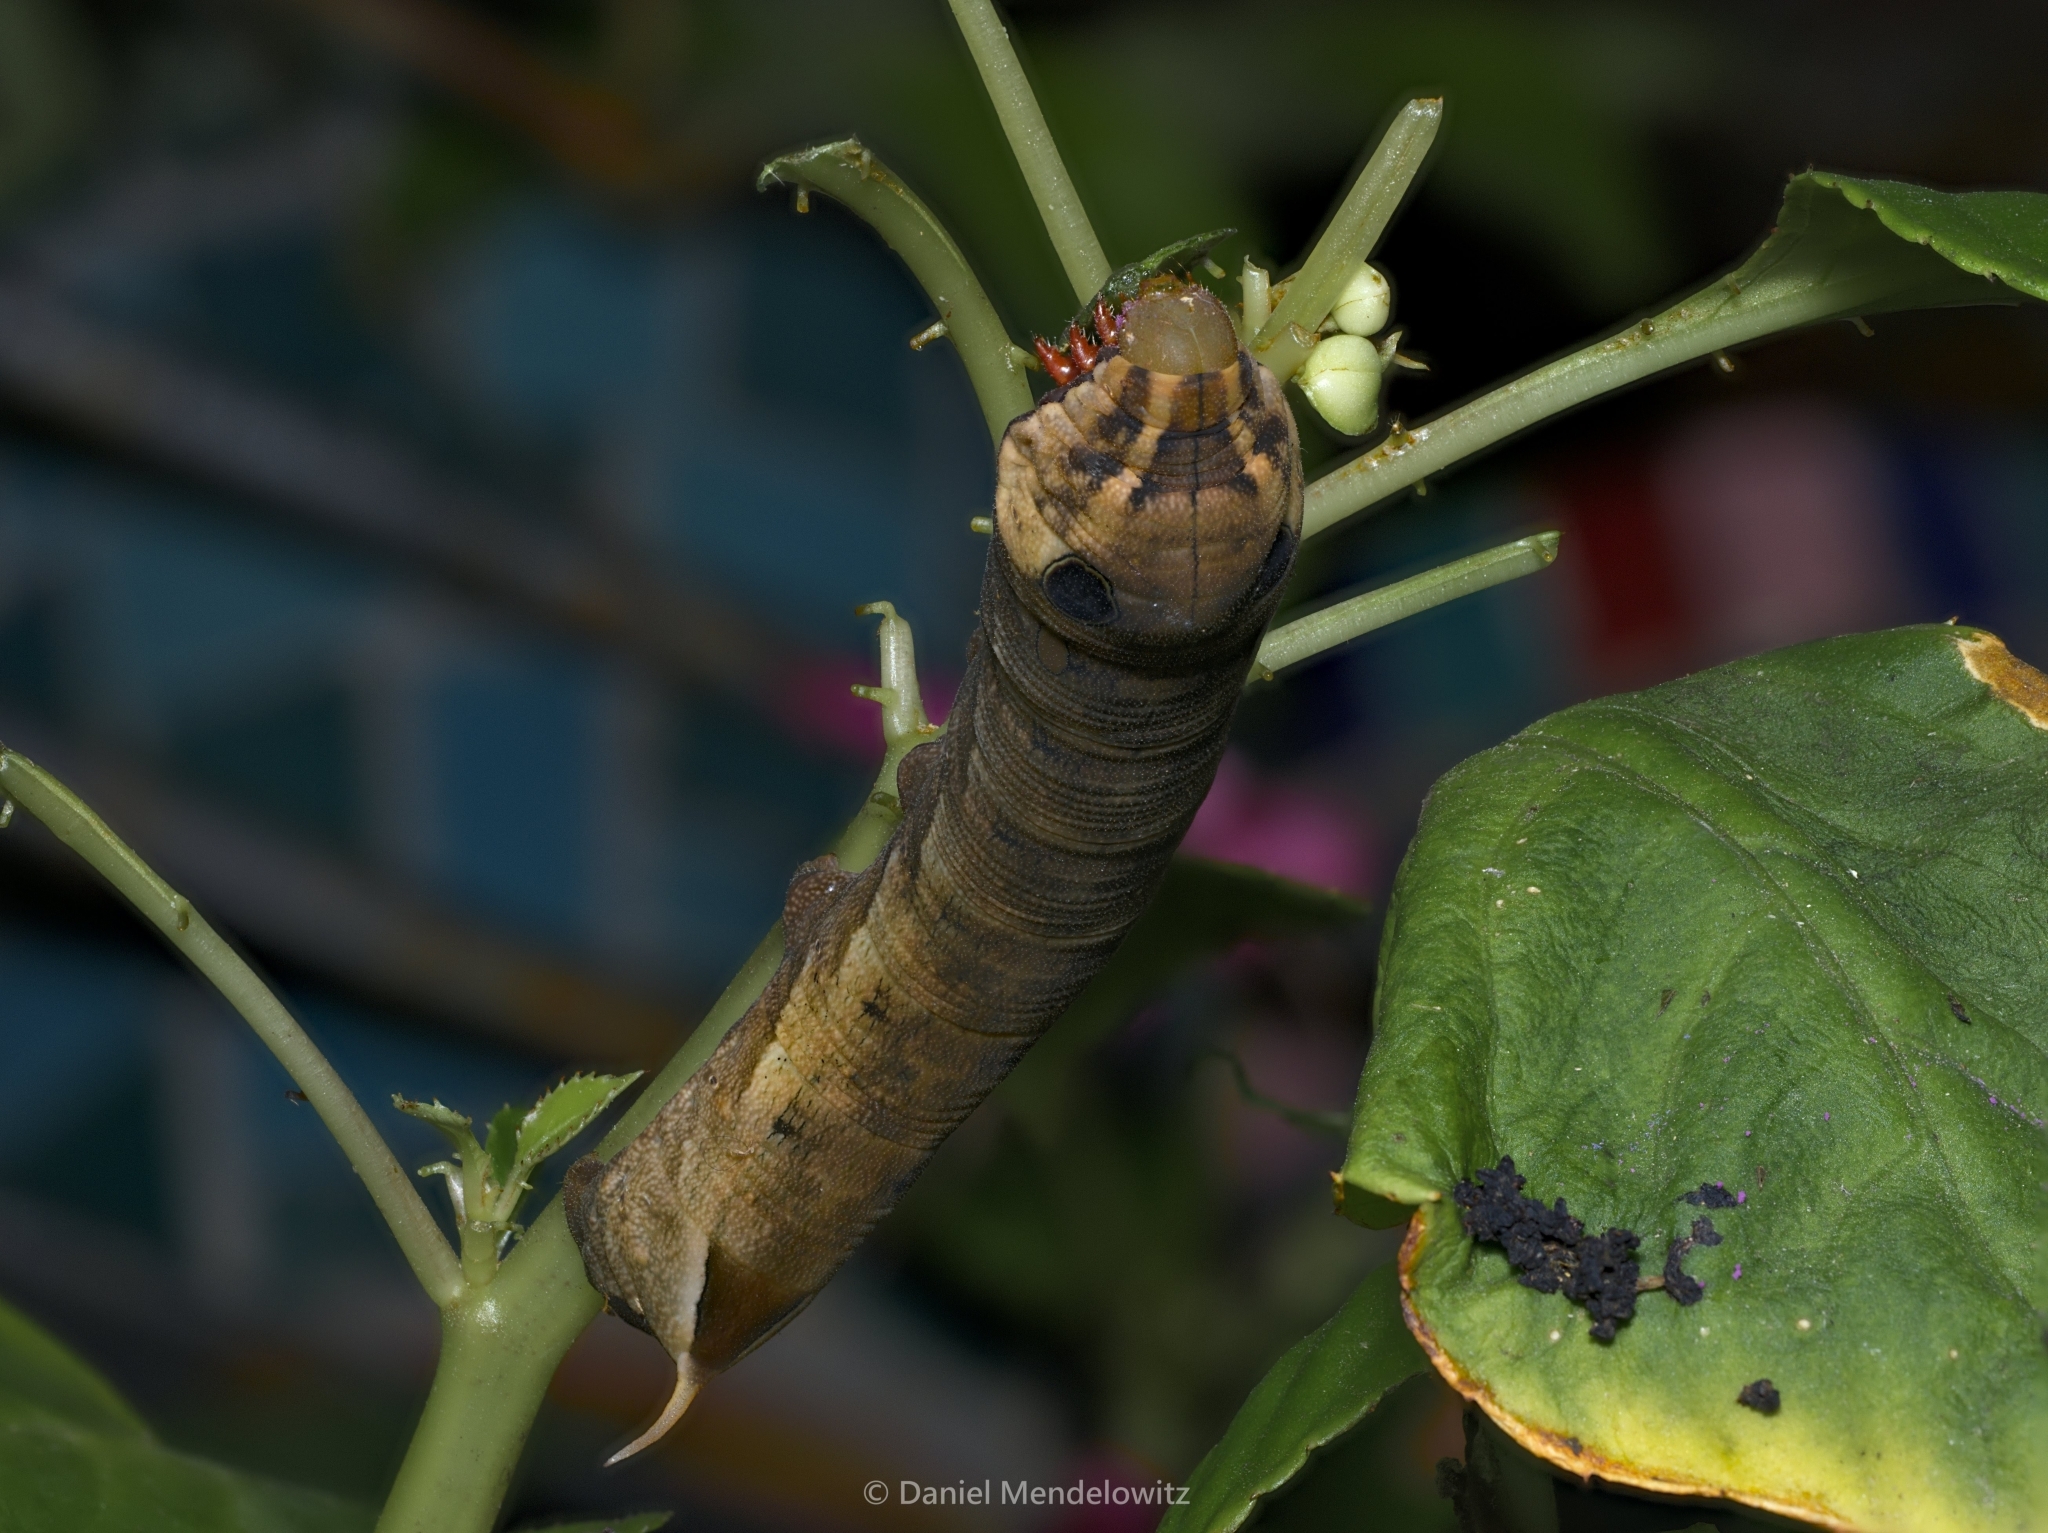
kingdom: Animalia
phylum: Arthropoda
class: Insecta
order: Lepidoptera
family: Sphingidae
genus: Hippotion
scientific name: Hippotion eson
